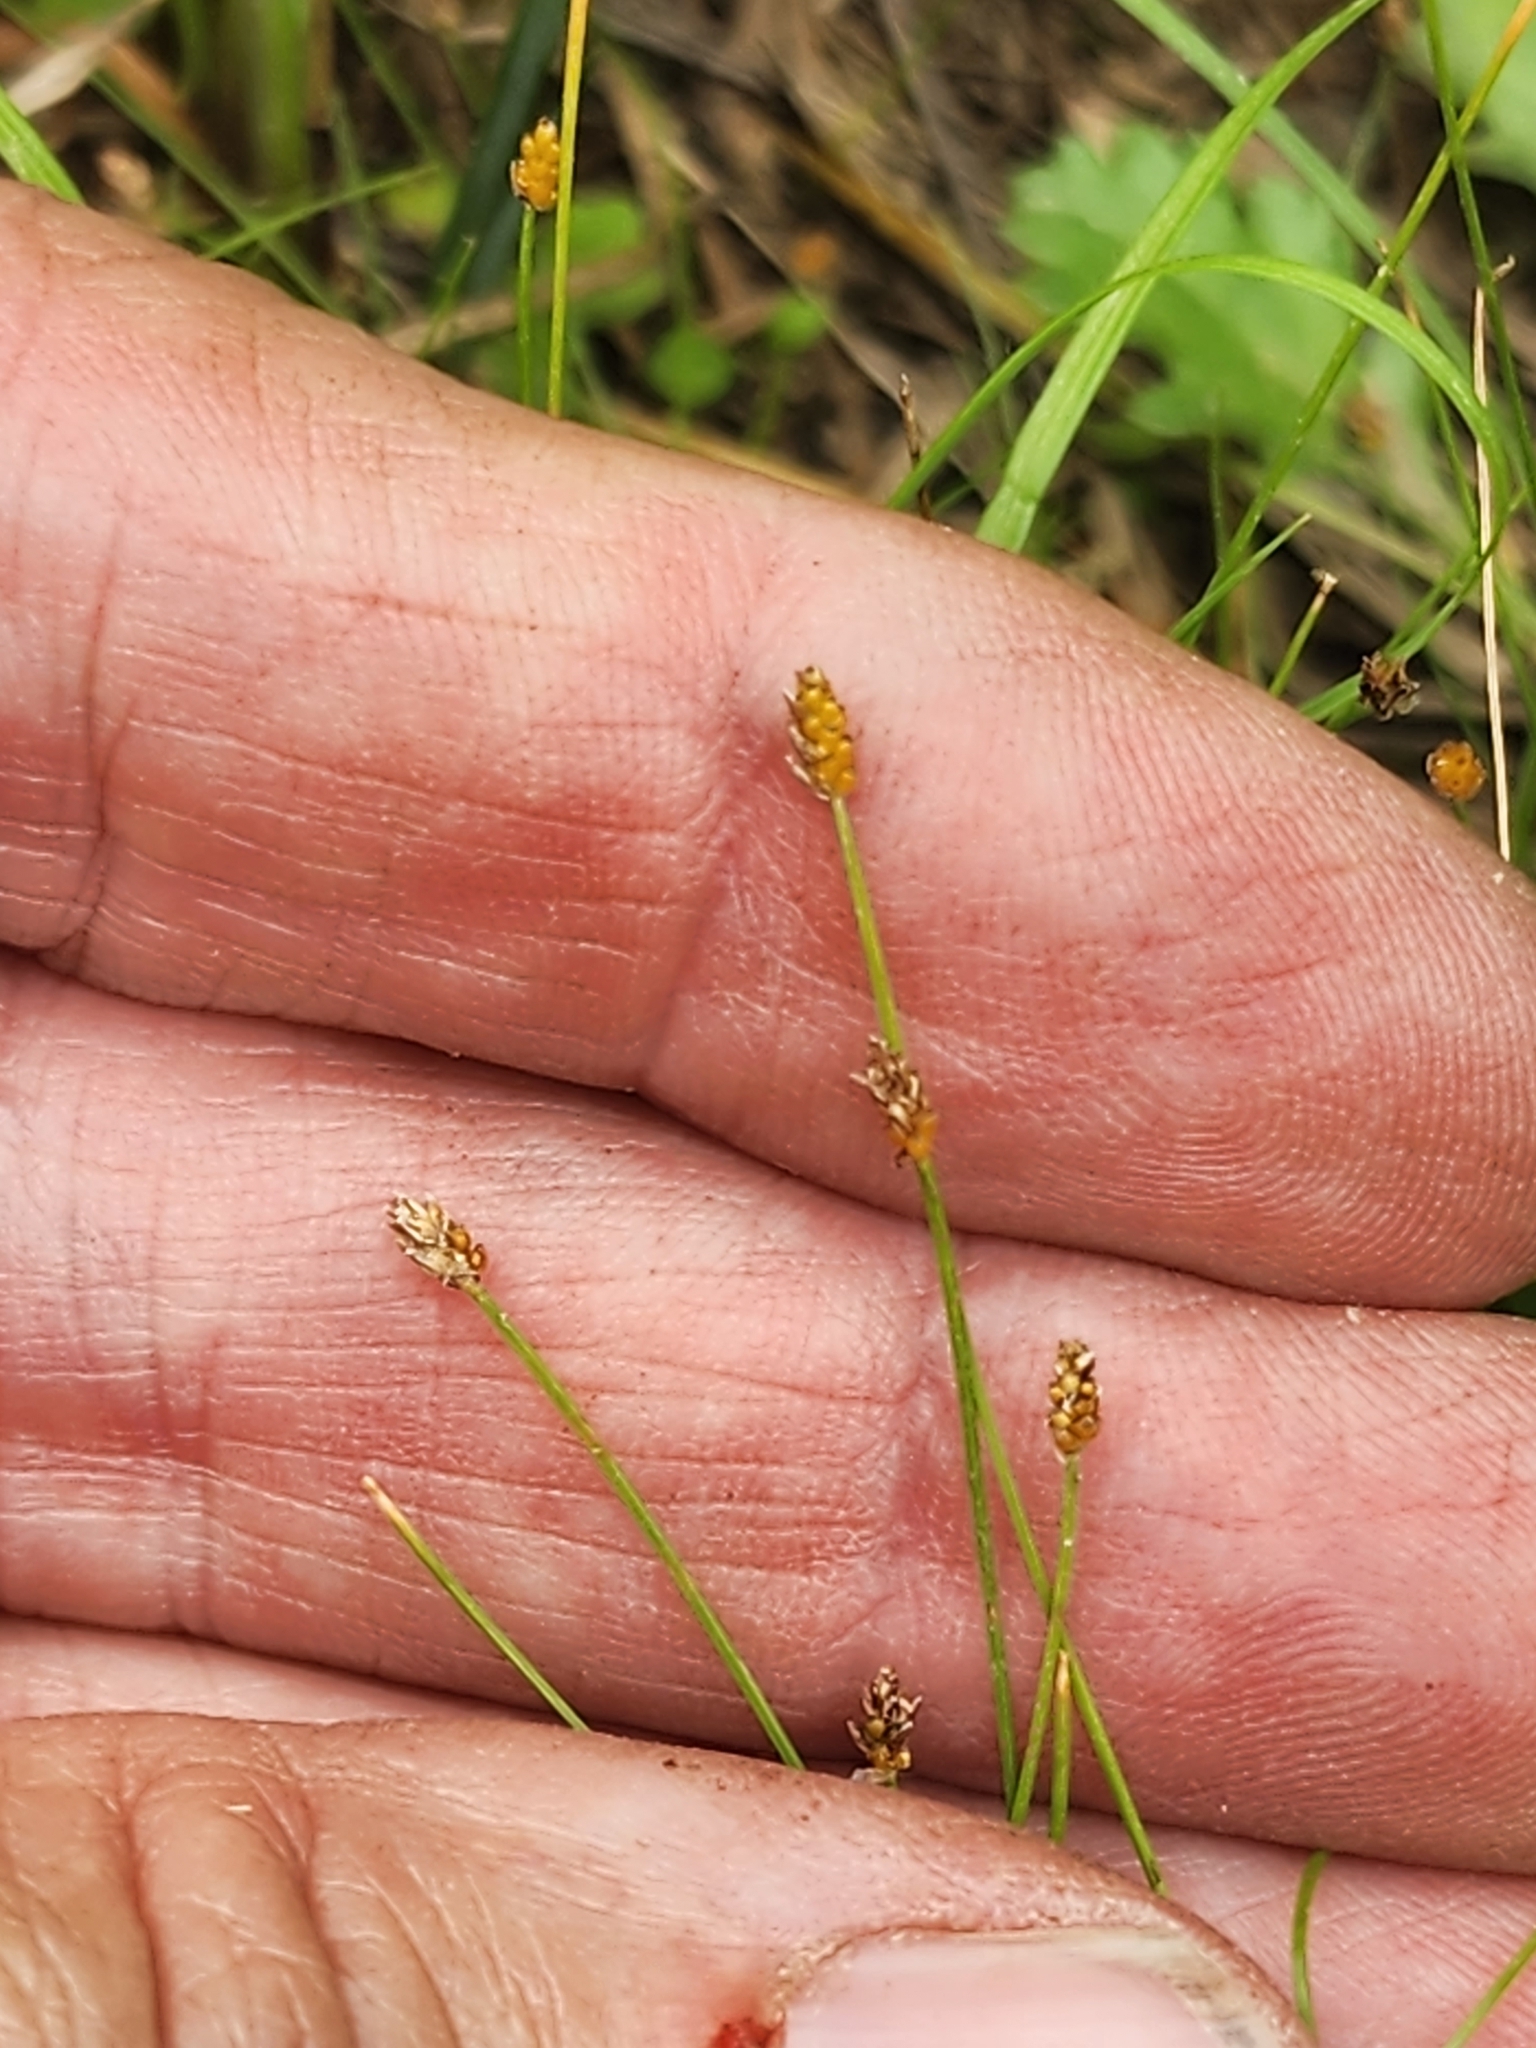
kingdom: Plantae
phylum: Tracheophyta
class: Liliopsida
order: Poales
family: Cyperaceae
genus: Eleocharis
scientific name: Eleocharis nitida
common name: Neat spikerush
